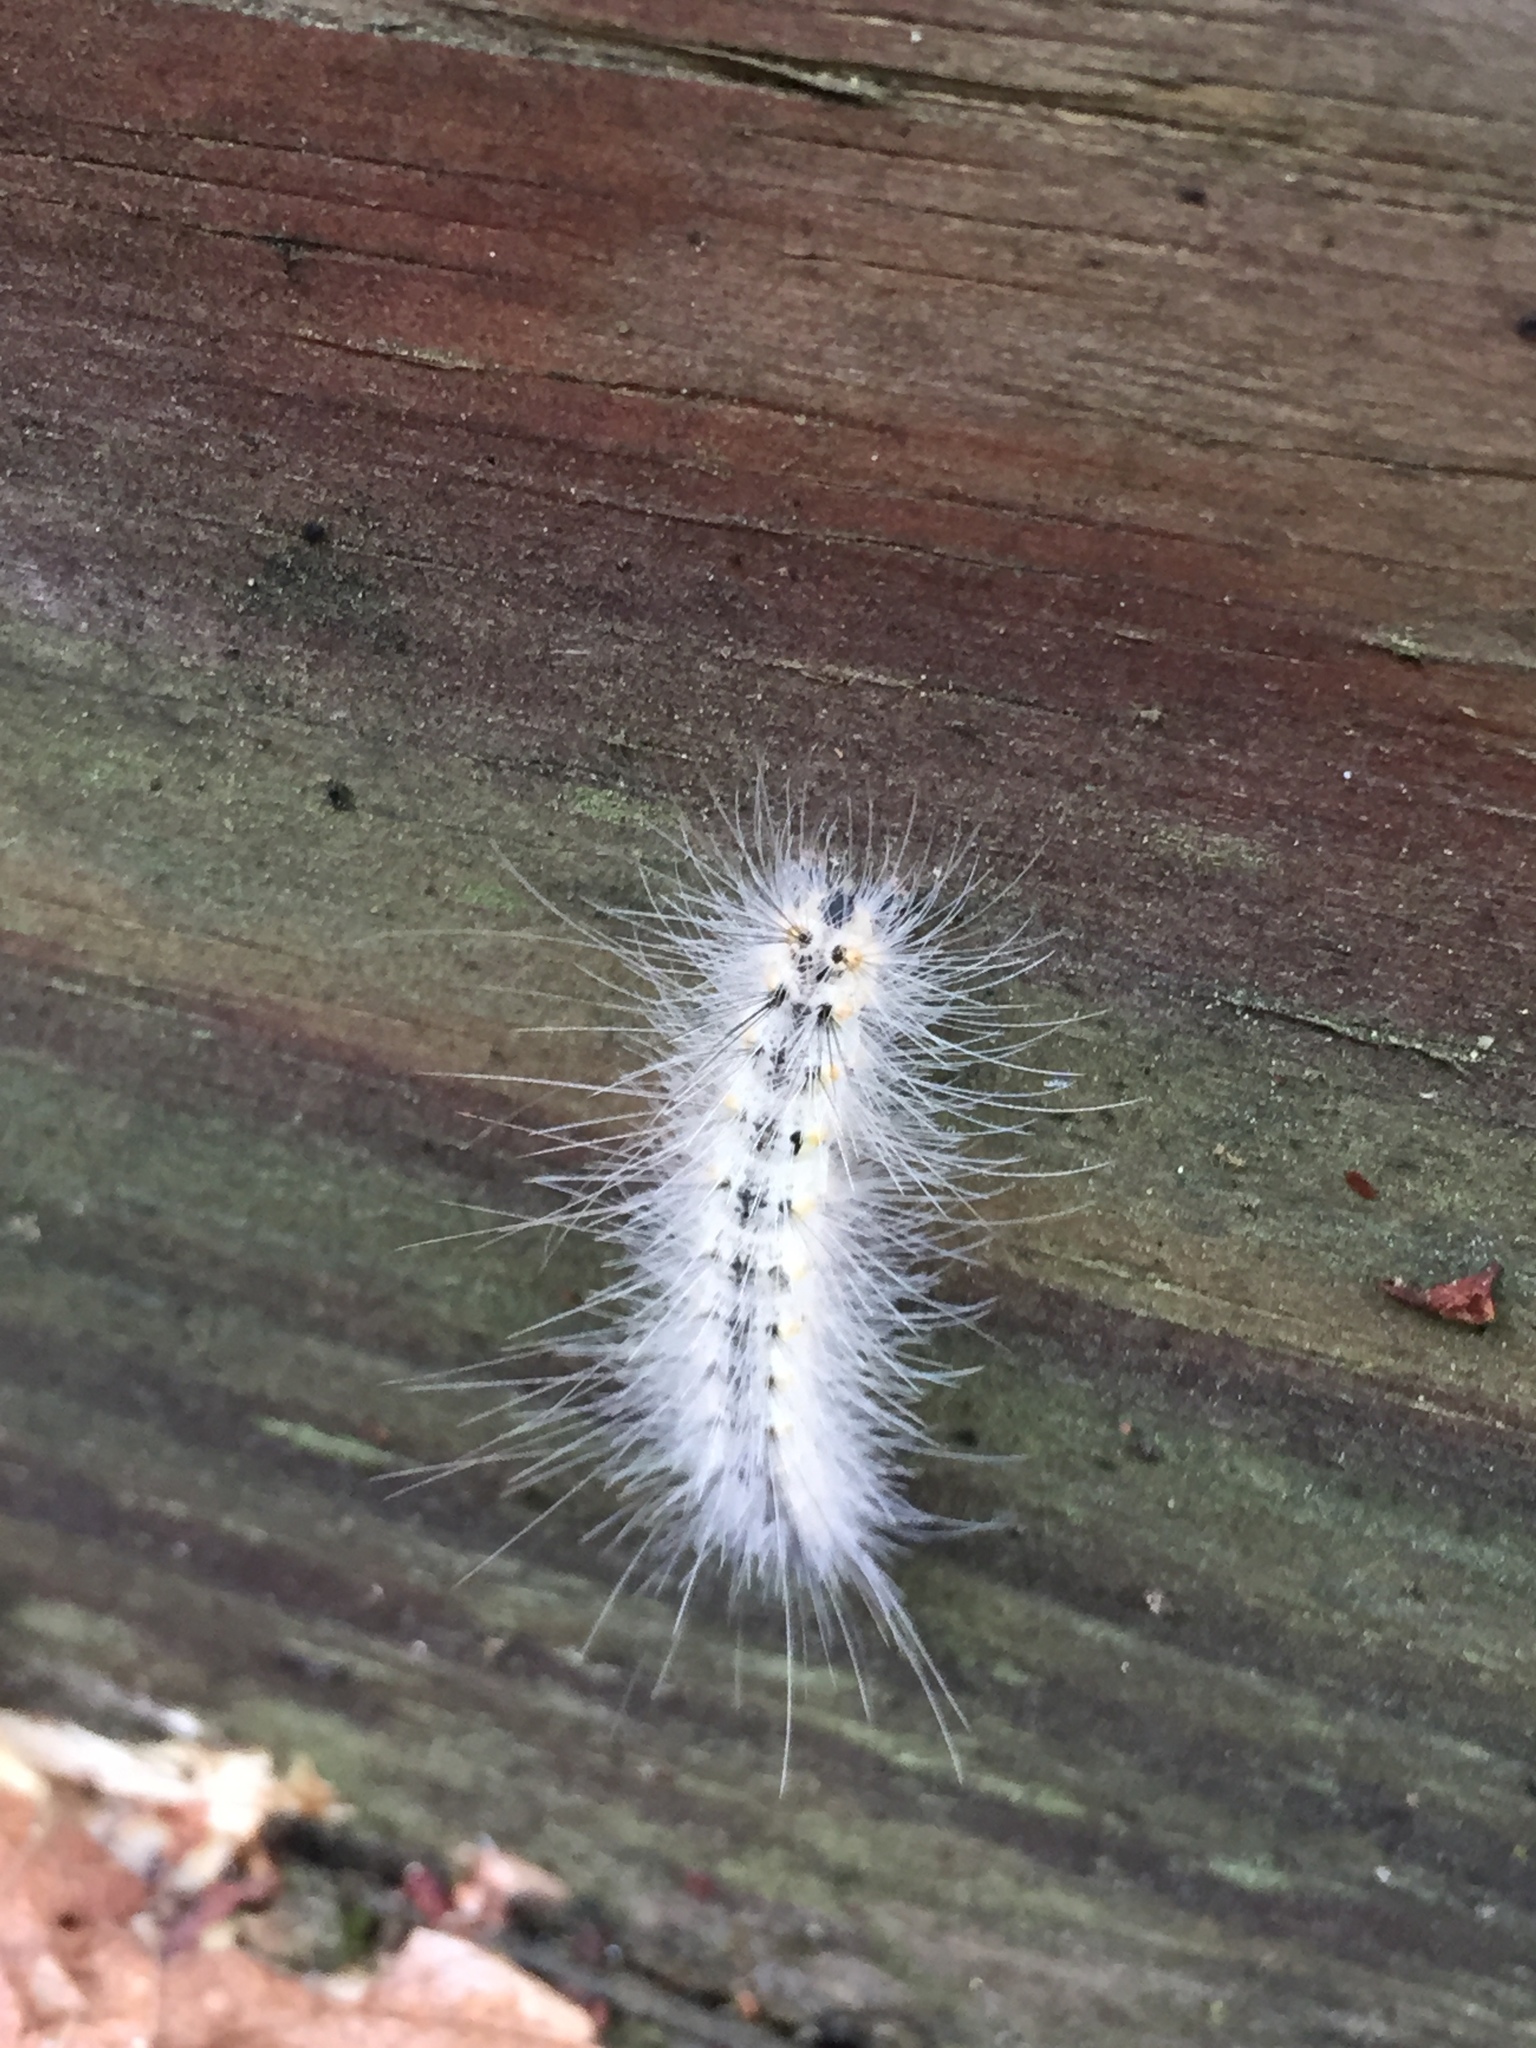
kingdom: Animalia
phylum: Arthropoda
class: Insecta
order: Lepidoptera
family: Erebidae
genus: Hyphantria
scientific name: Hyphantria cunea
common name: American white moth
